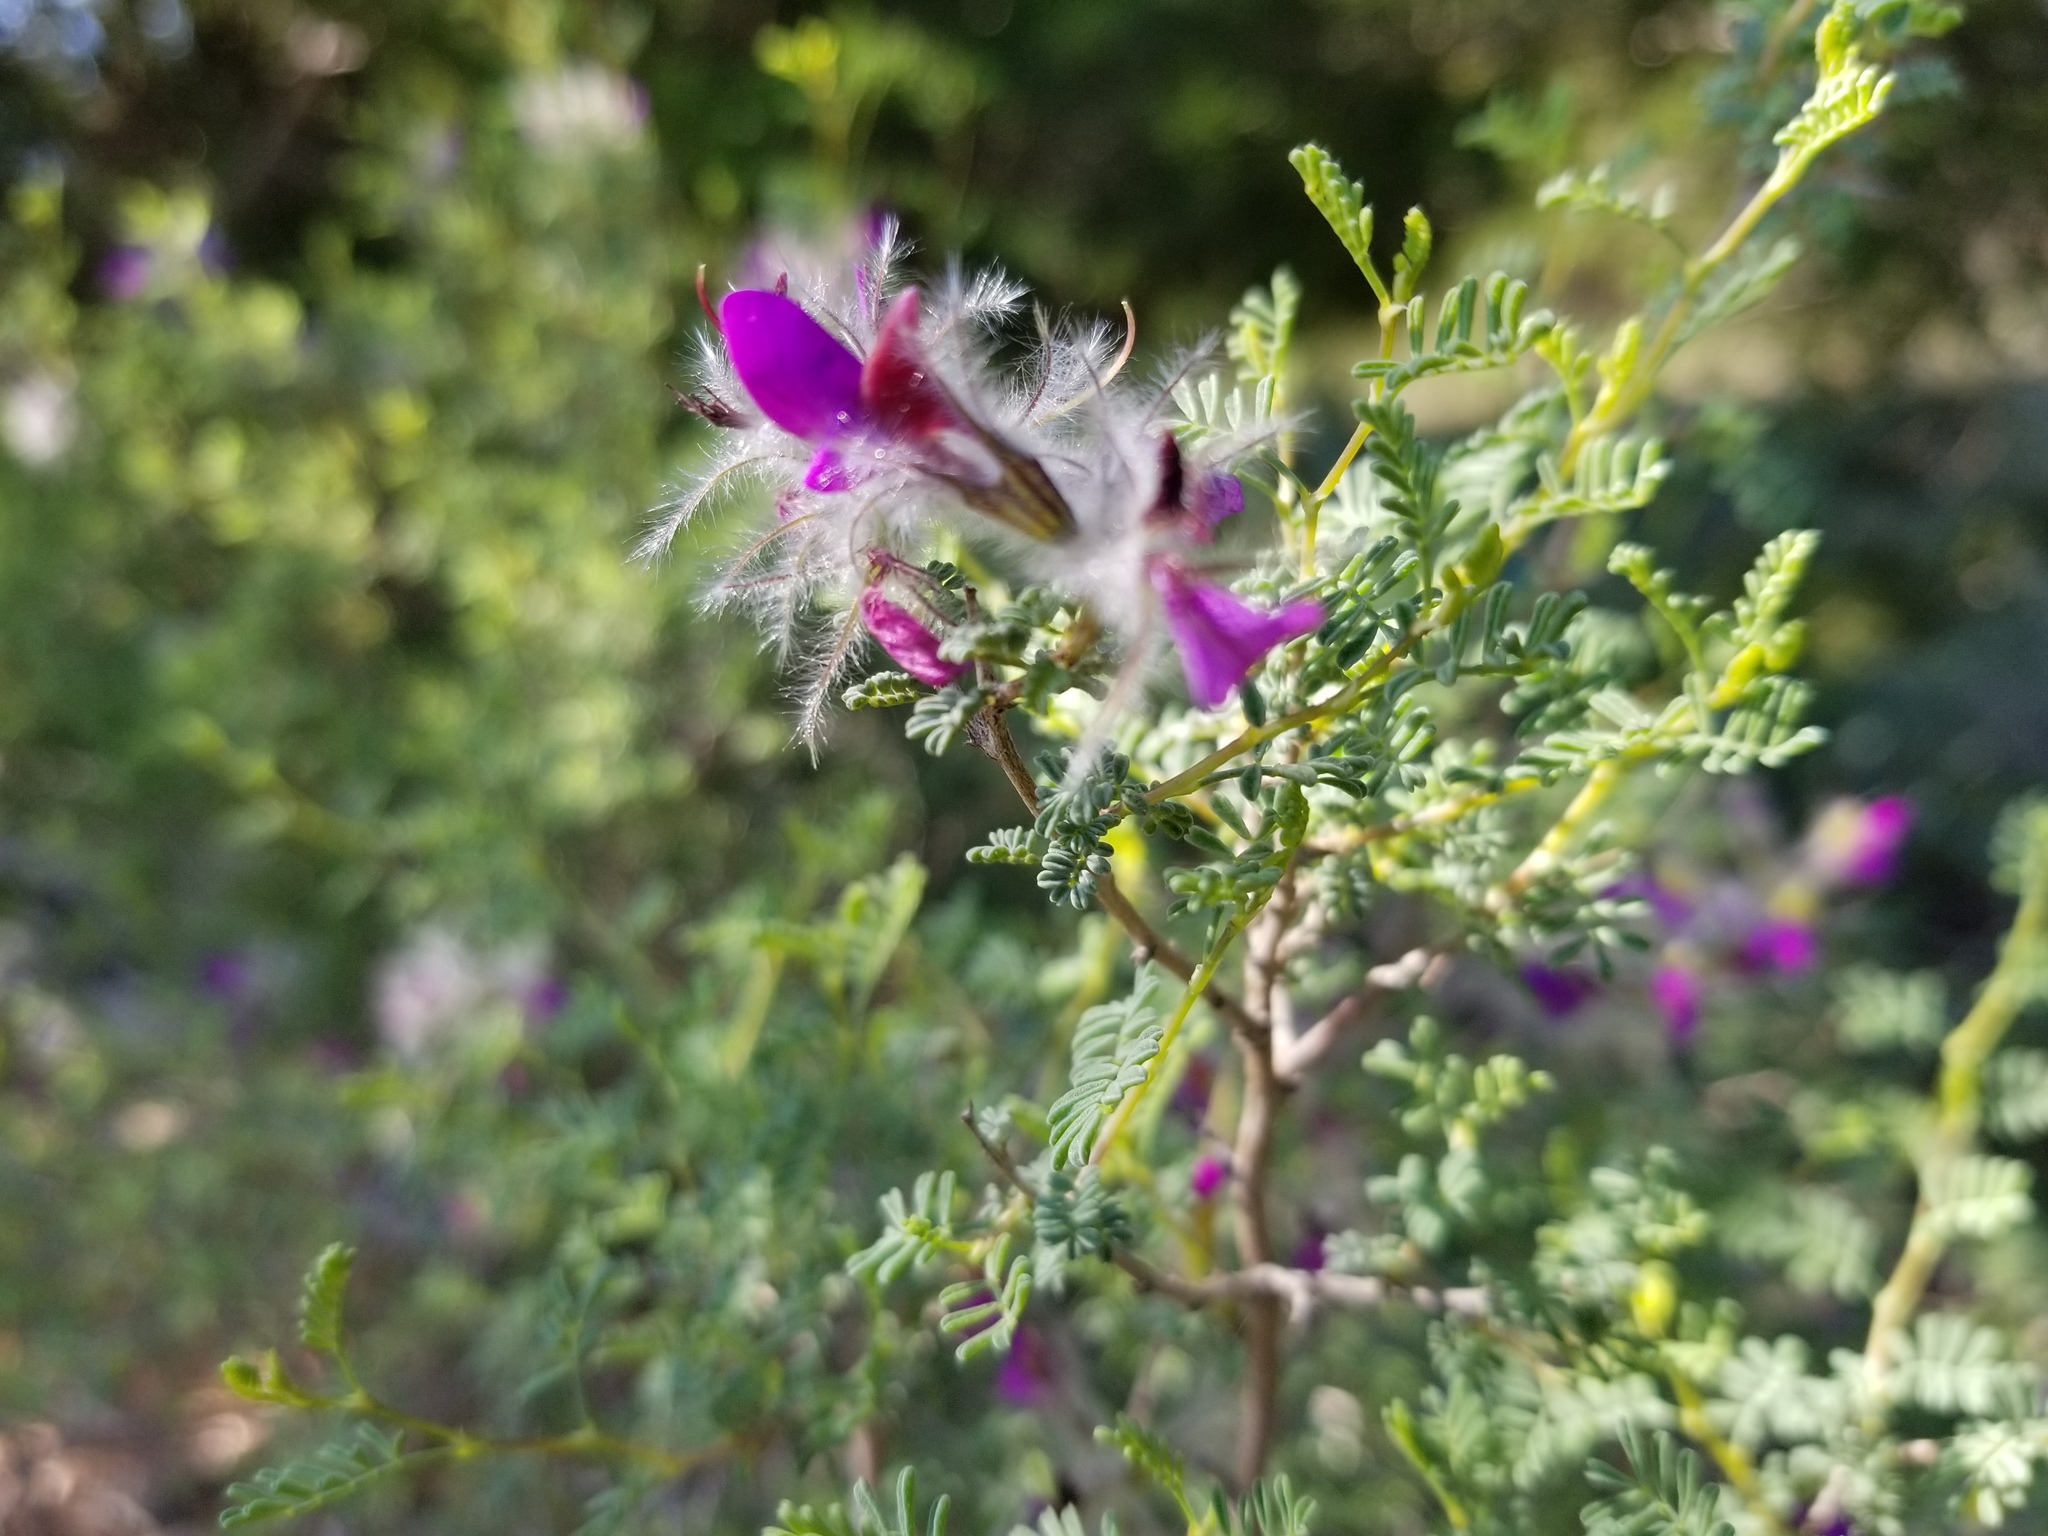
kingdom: Plantae
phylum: Tracheophyta
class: Magnoliopsida
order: Fabales
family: Fabaceae
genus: Dalea
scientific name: Dalea formosa
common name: Feather-plume dalea
